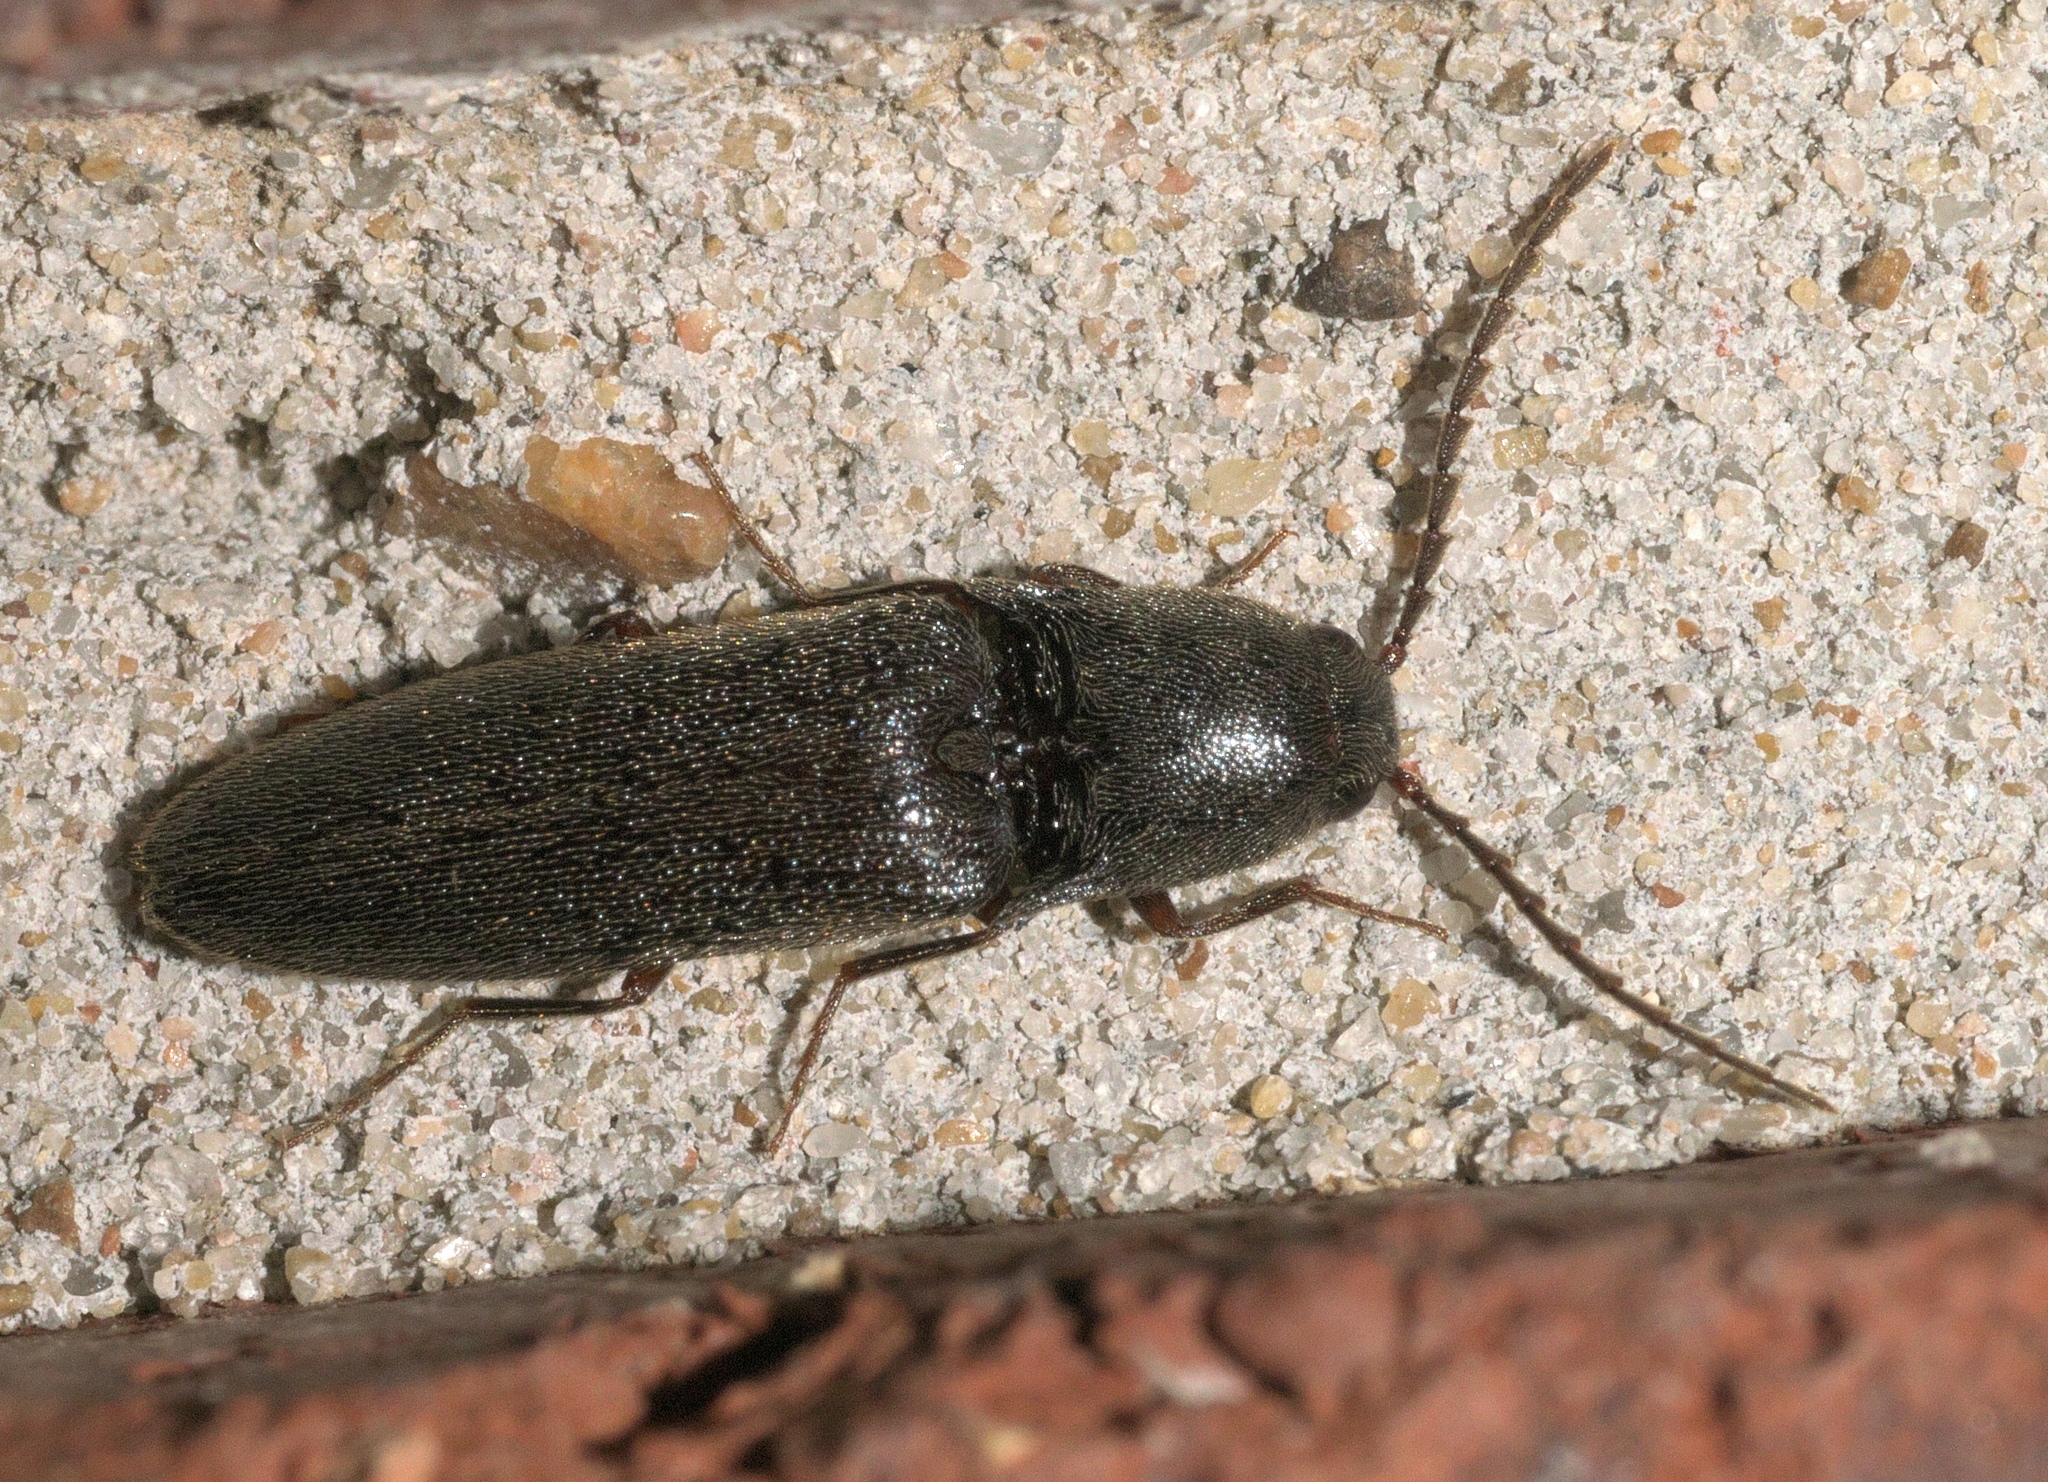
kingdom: Animalia
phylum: Arthropoda
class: Insecta
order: Coleoptera
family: Elateridae
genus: Megapenthes
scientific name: Megapenthes insignis
